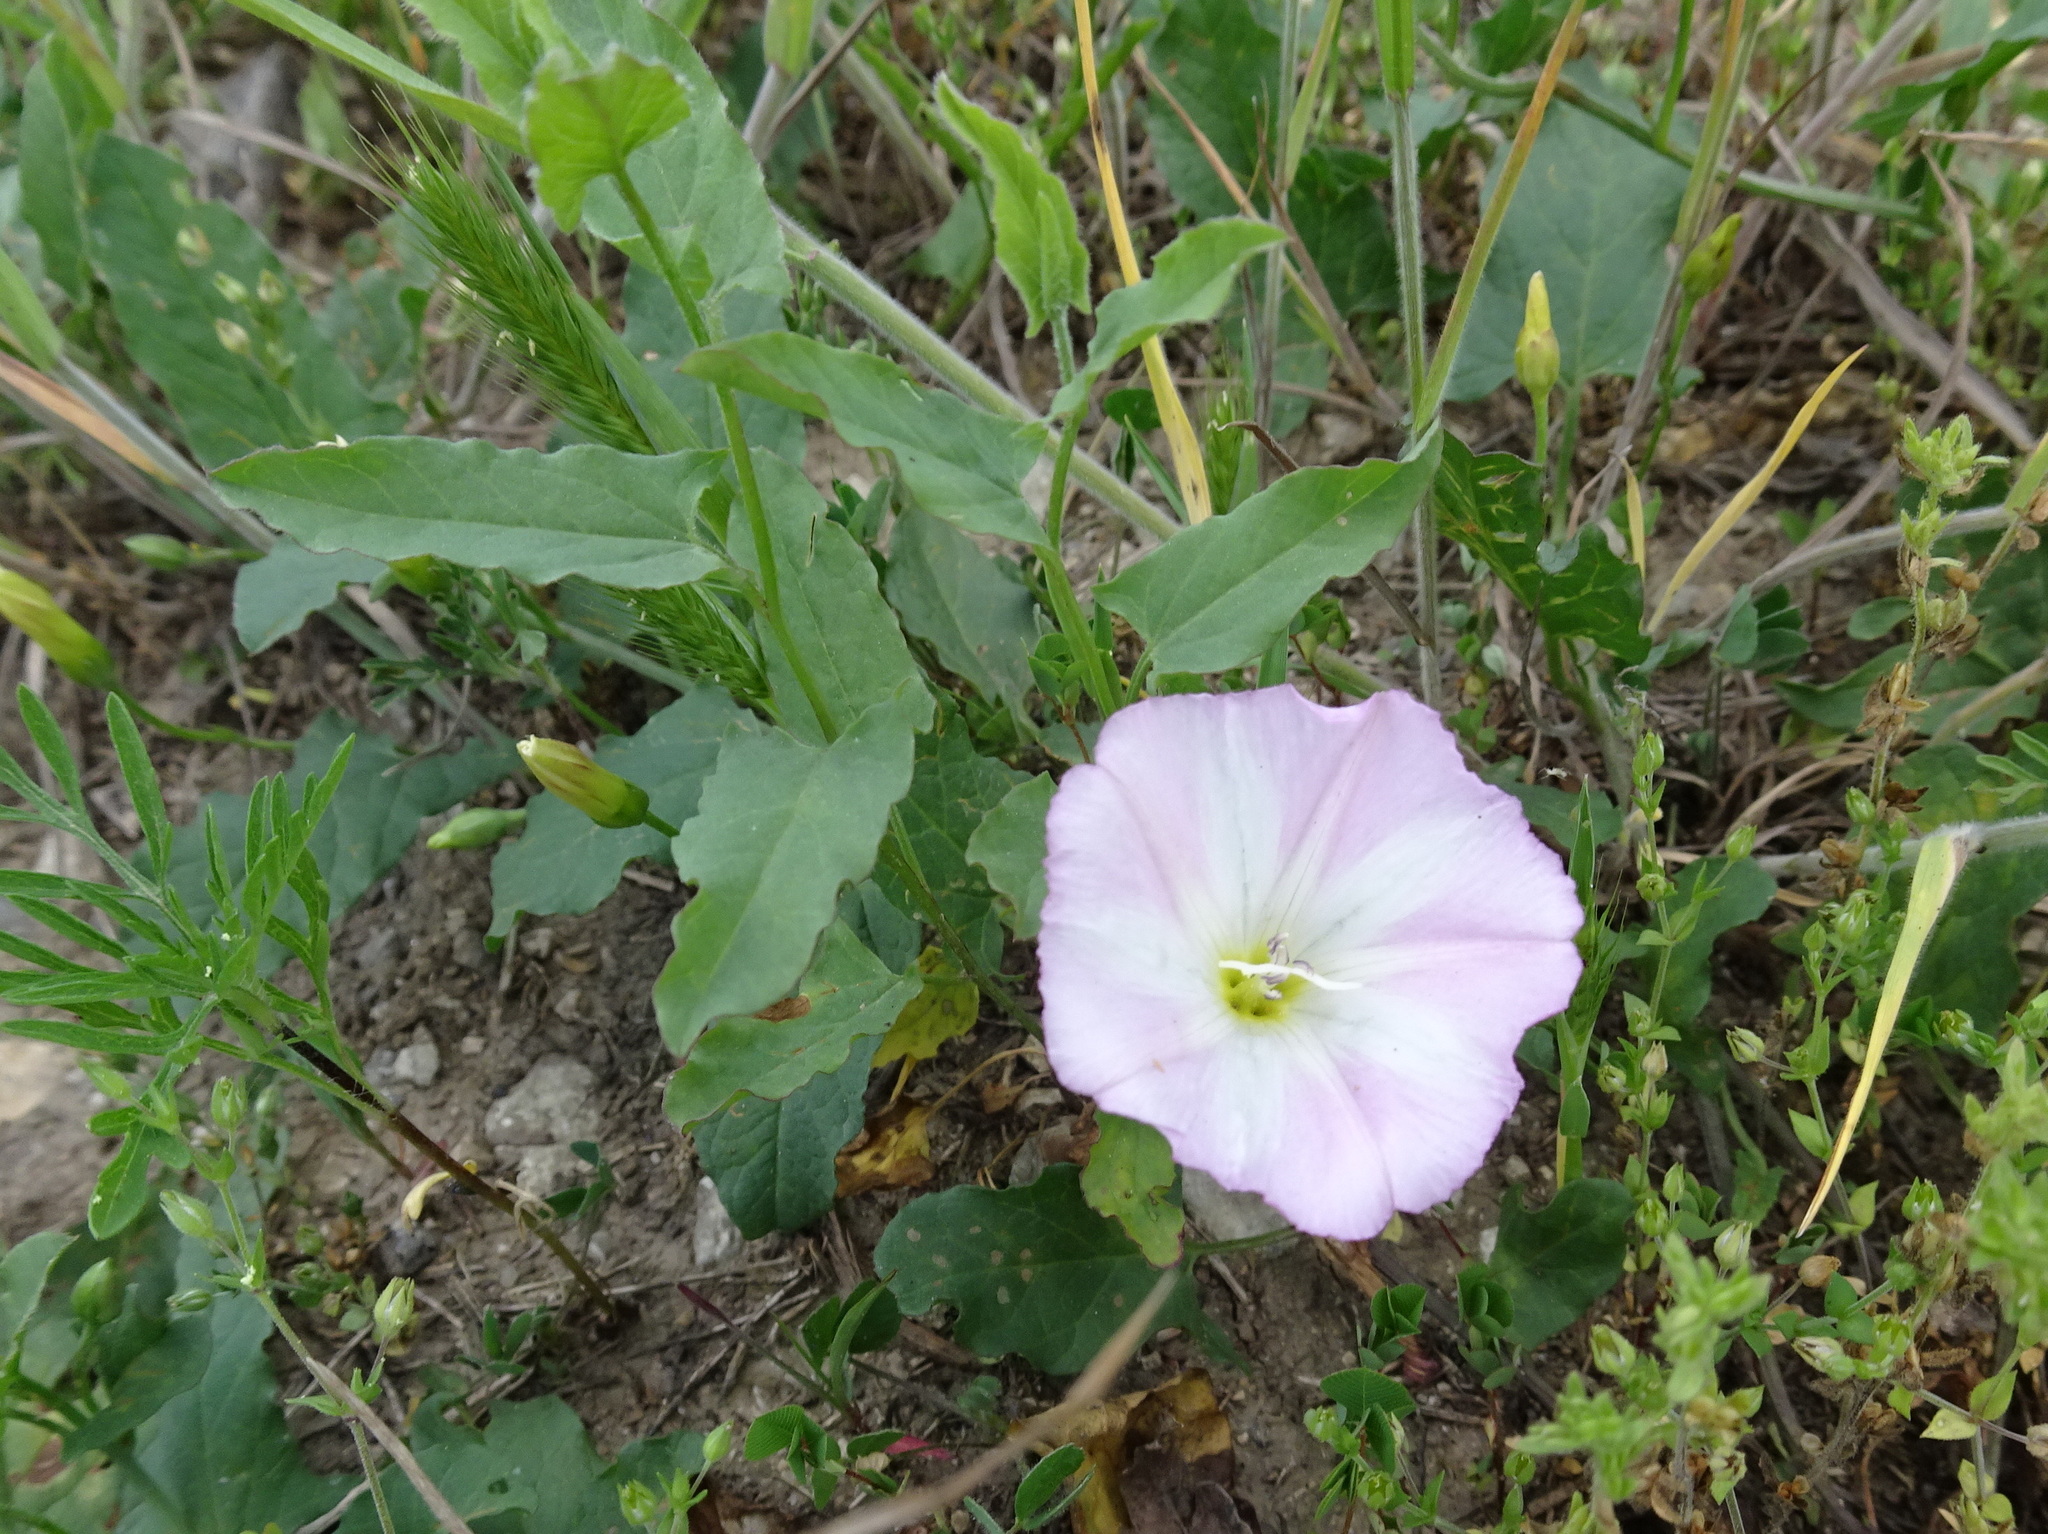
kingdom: Plantae
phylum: Tracheophyta
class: Magnoliopsida
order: Solanales
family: Convolvulaceae
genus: Convolvulus
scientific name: Convolvulus arvensis
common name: Field bindweed
